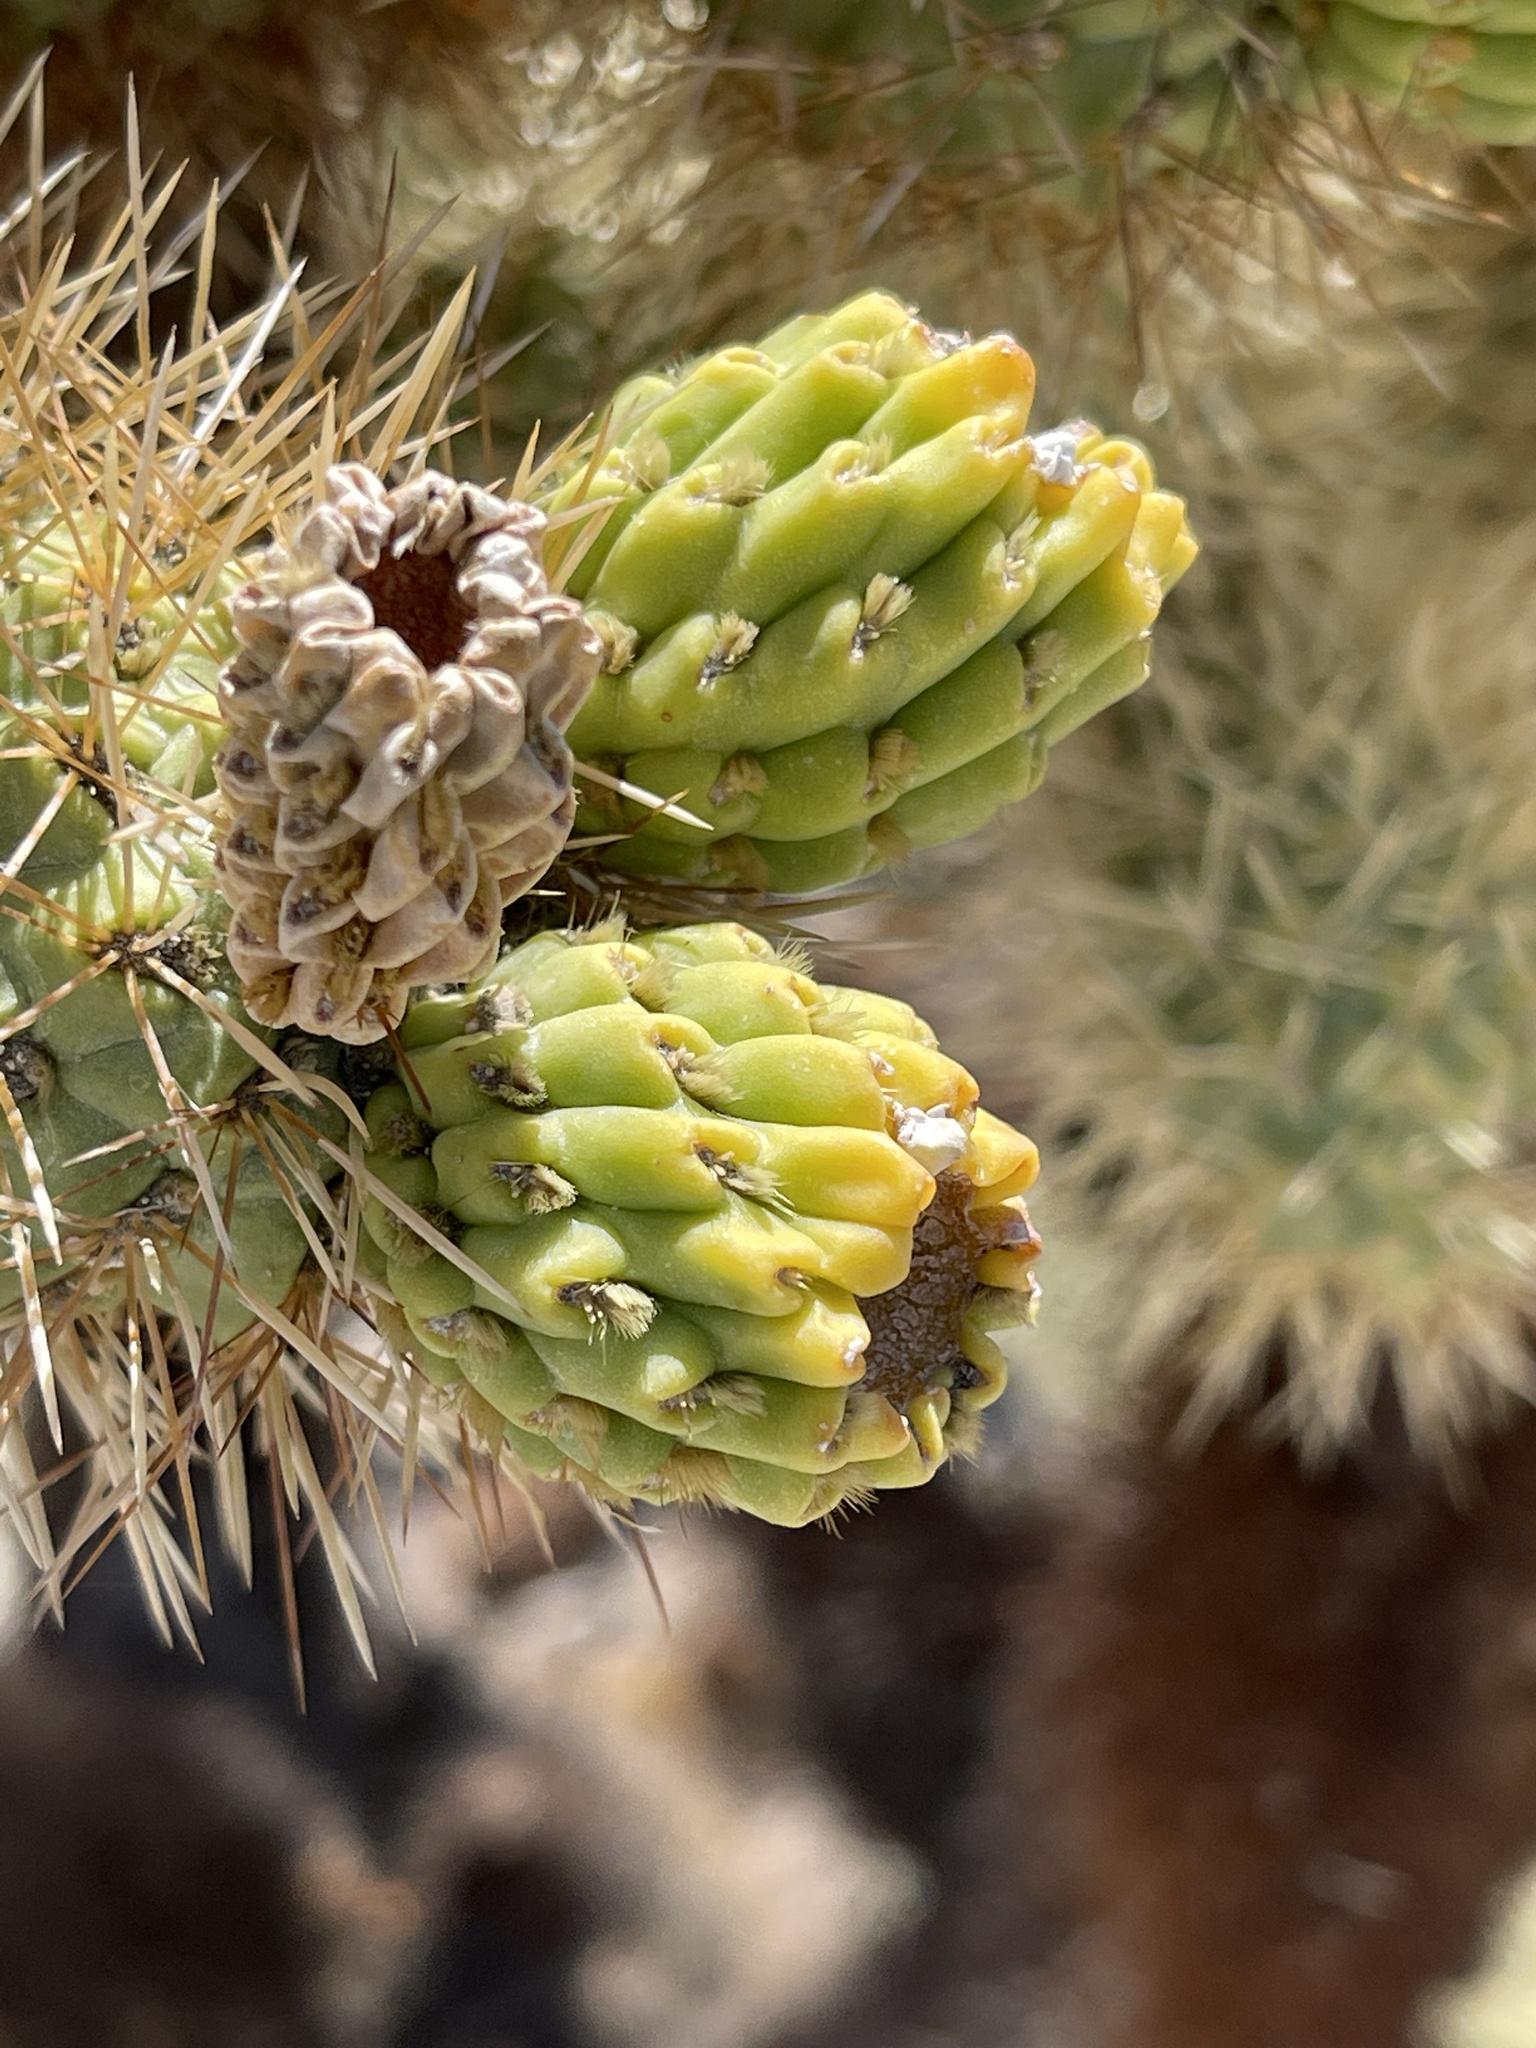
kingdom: Plantae
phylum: Tracheophyta
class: Magnoliopsida
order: Caryophyllales
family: Cactaceae
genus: Cylindropuntia
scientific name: Cylindropuntia fosbergii
